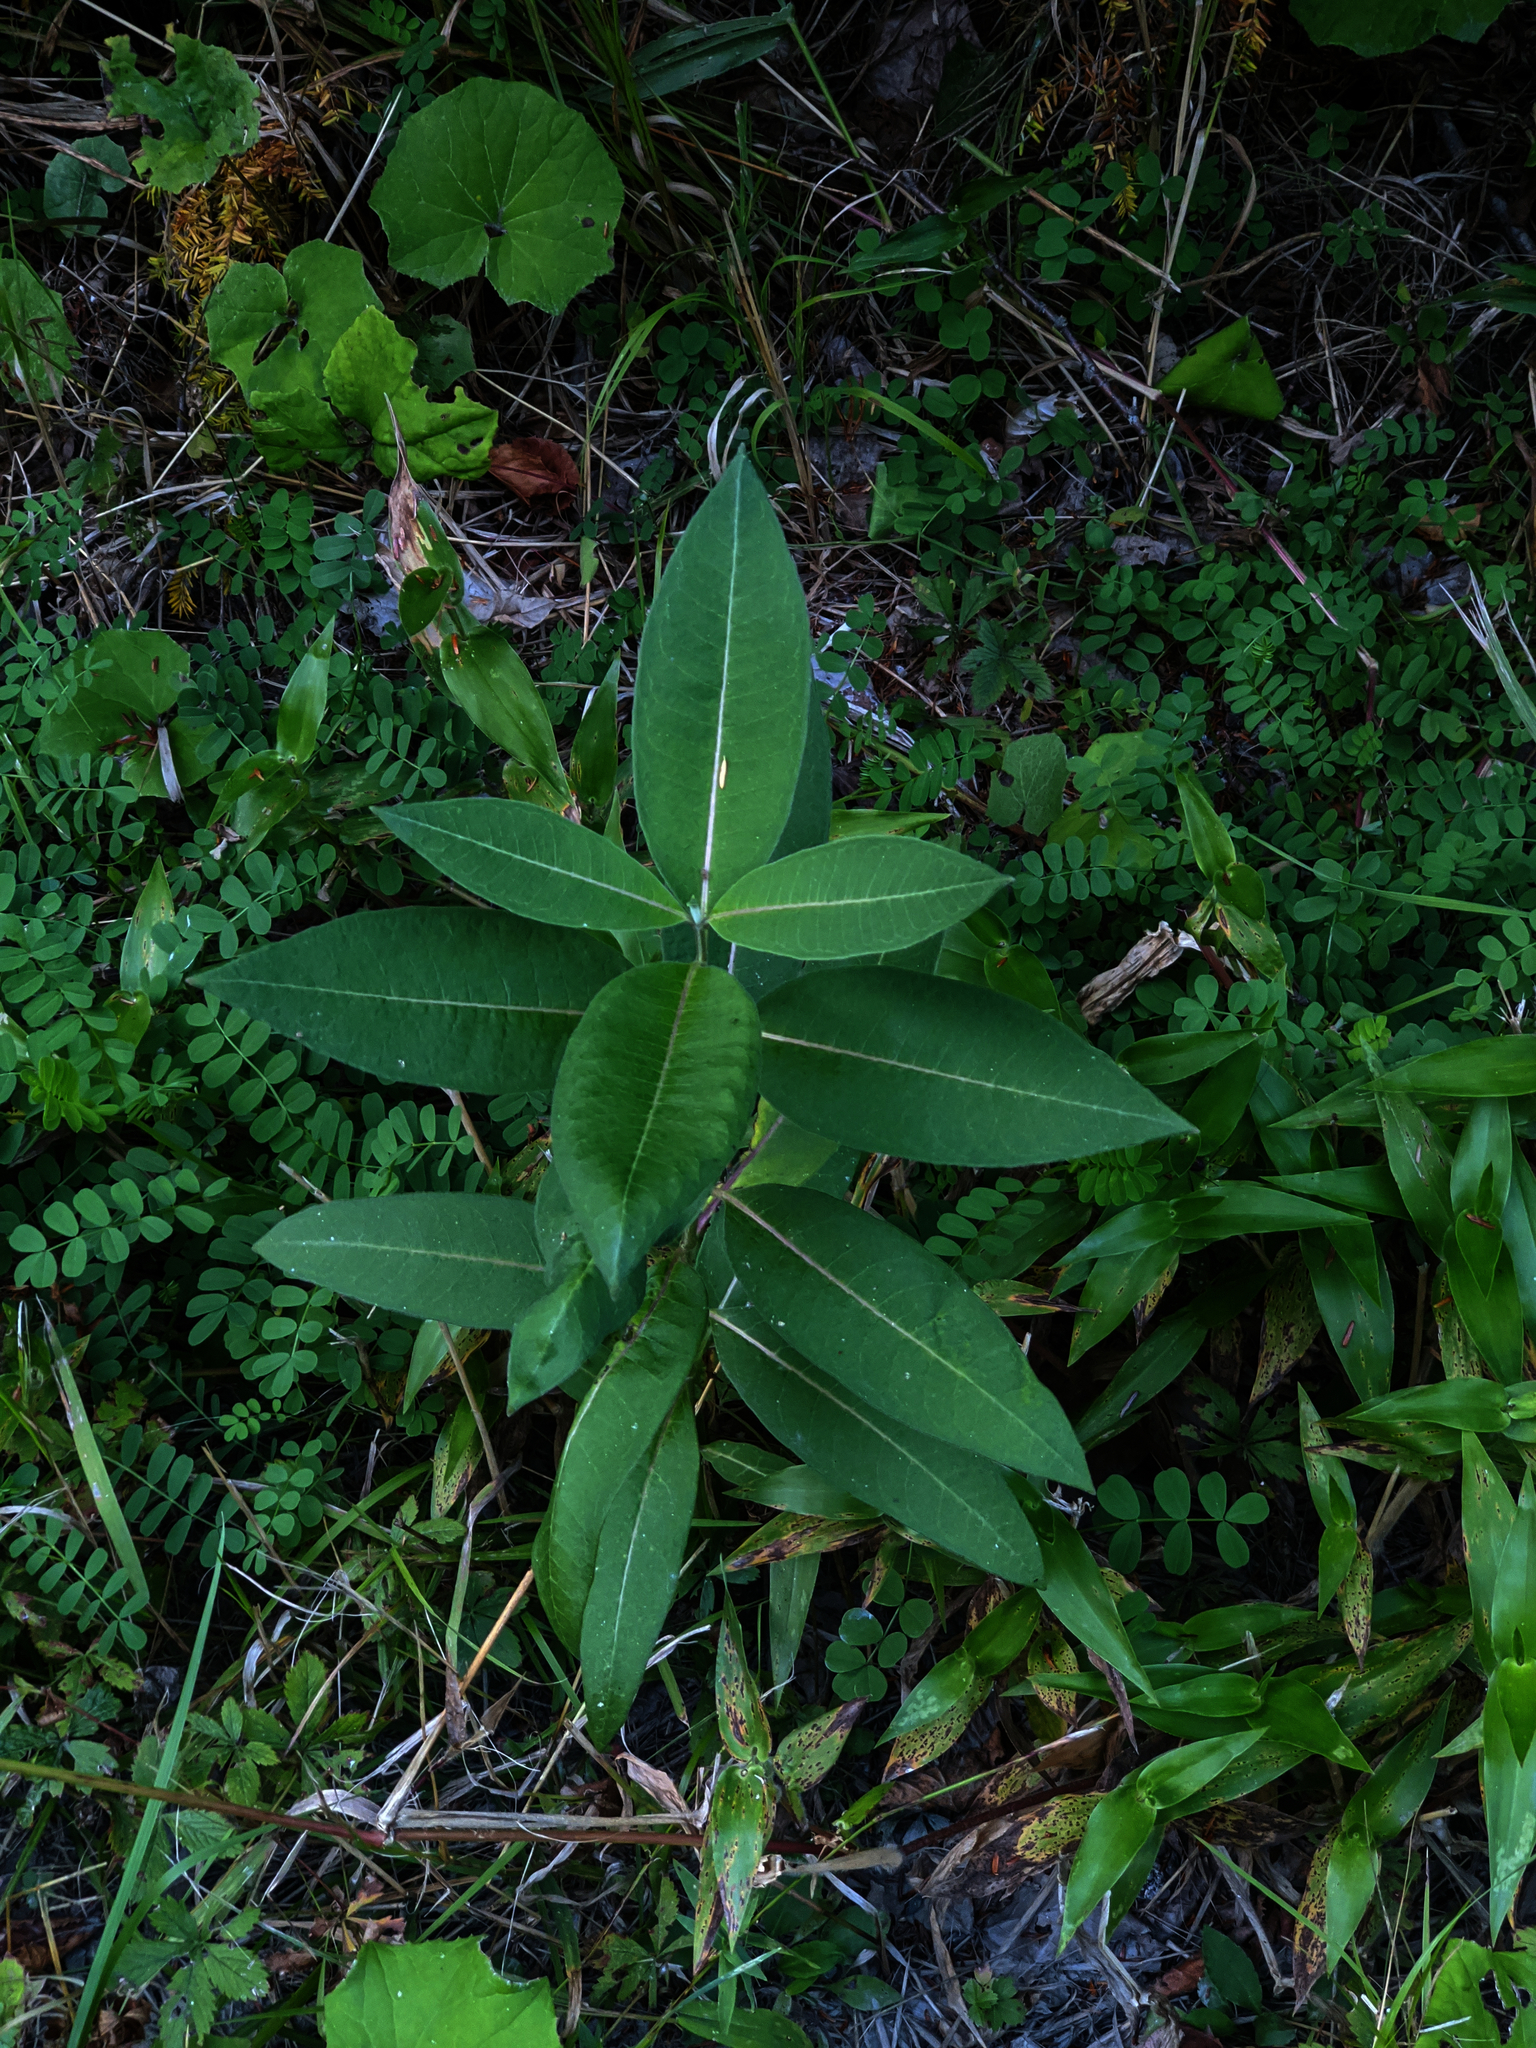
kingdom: Plantae
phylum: Tracheophyta
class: Magnoliopsida
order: Gentianales
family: Apocynaceae
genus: Asclepias
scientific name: Asclepias syriaca
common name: Common milkweed
